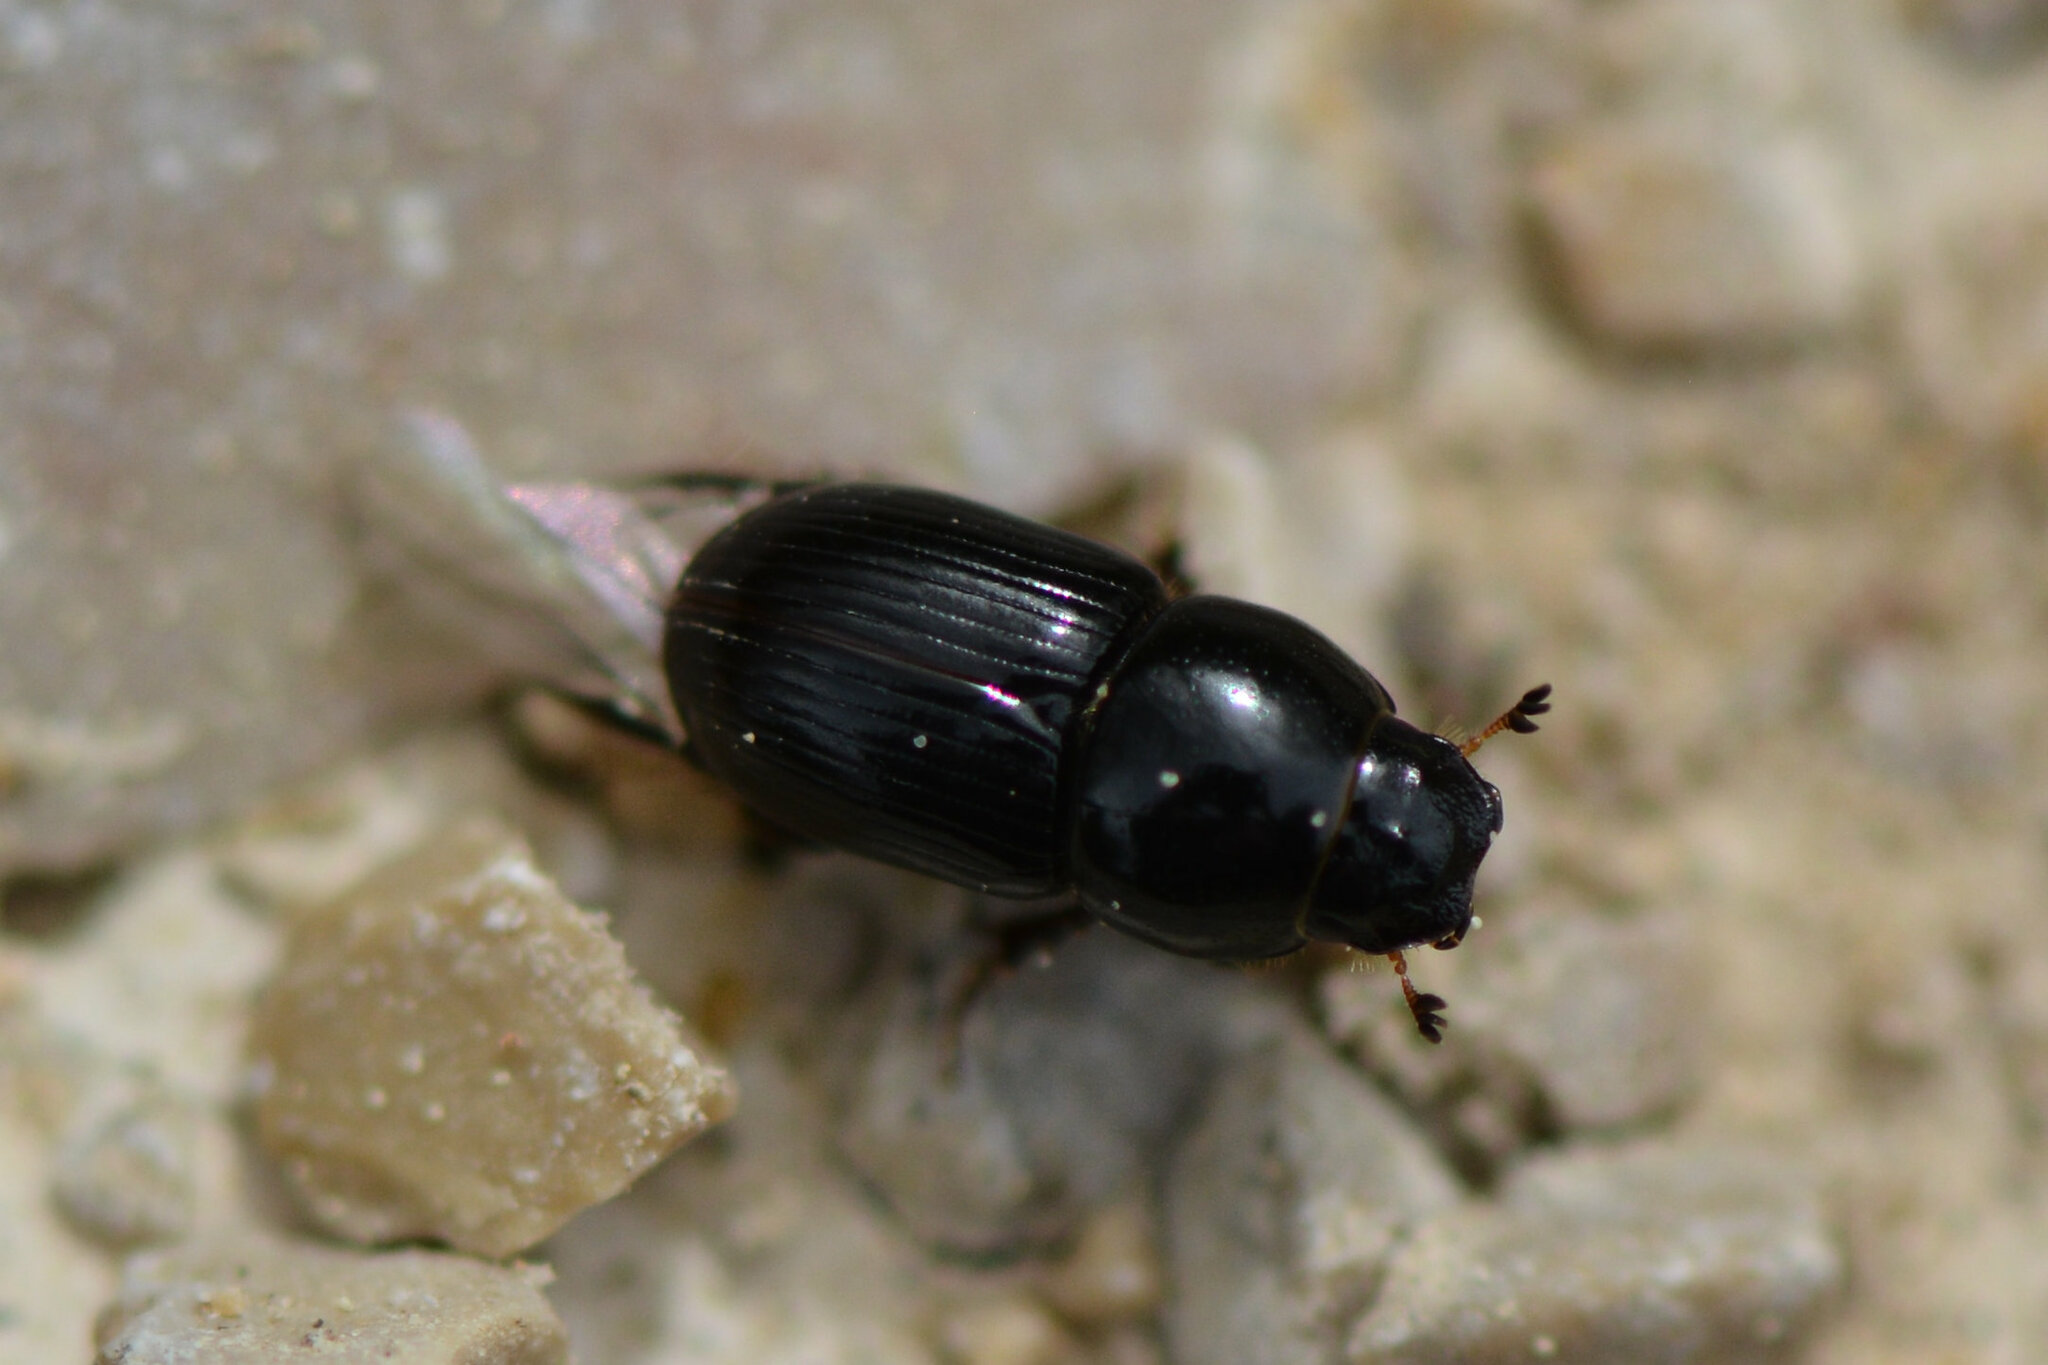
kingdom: Animalia
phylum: Arthropoda
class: Insecta
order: Coleoptera
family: Scarabaeidae
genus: Calamosternus
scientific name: Calamosternus granarius
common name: Granular small dung beetle
